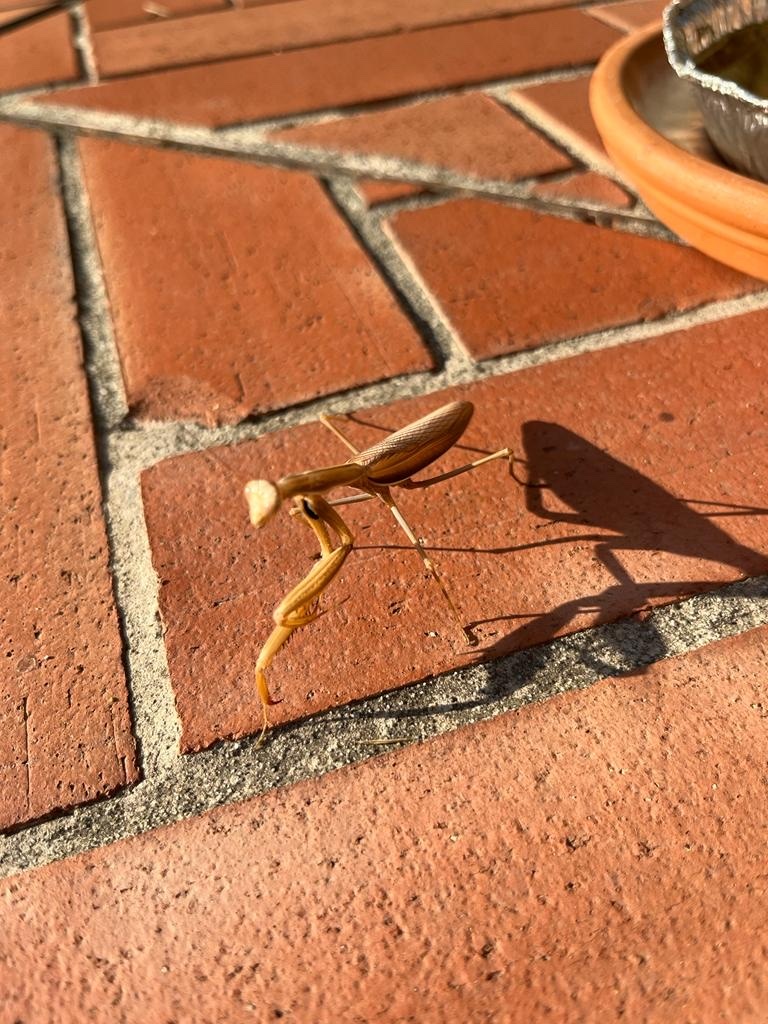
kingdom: Animalia
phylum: Arthropoda
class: Insecta
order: Mantodea
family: Mantidae
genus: Mantis
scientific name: Mantis religiosa
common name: Praying mantis
